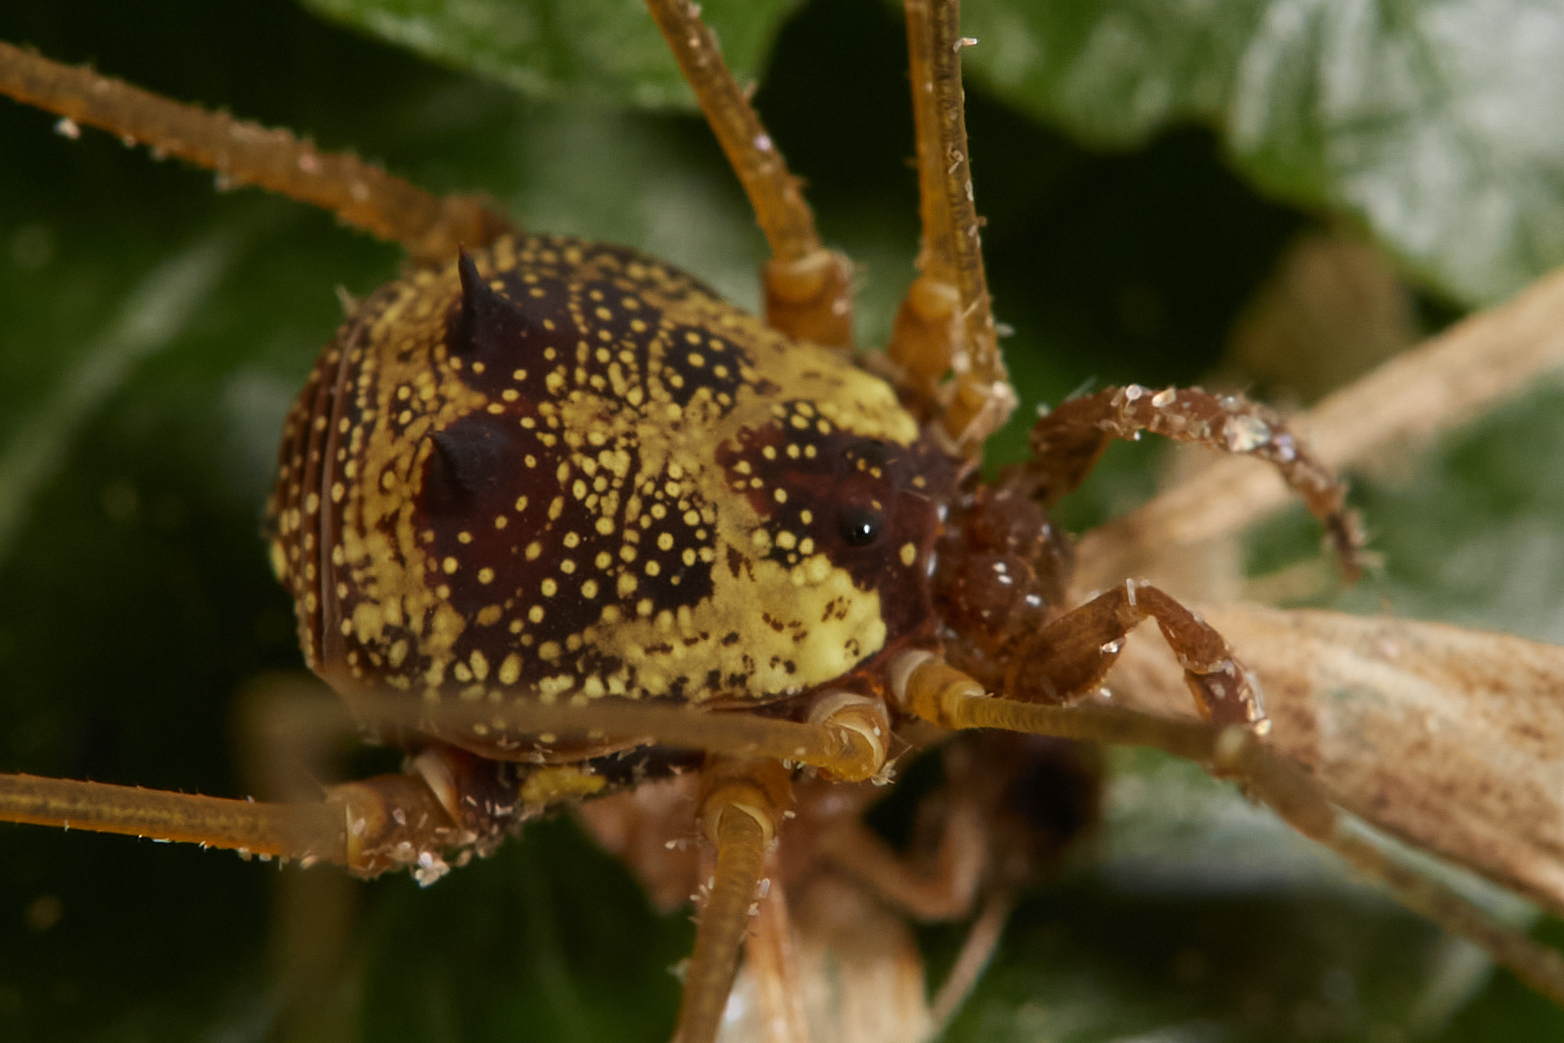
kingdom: Animalia
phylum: Arthropoda
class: Arachnida
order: Opiliones
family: Cosmetidae
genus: Flirtea
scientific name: Flirtea lateralis
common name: Harvestmen
